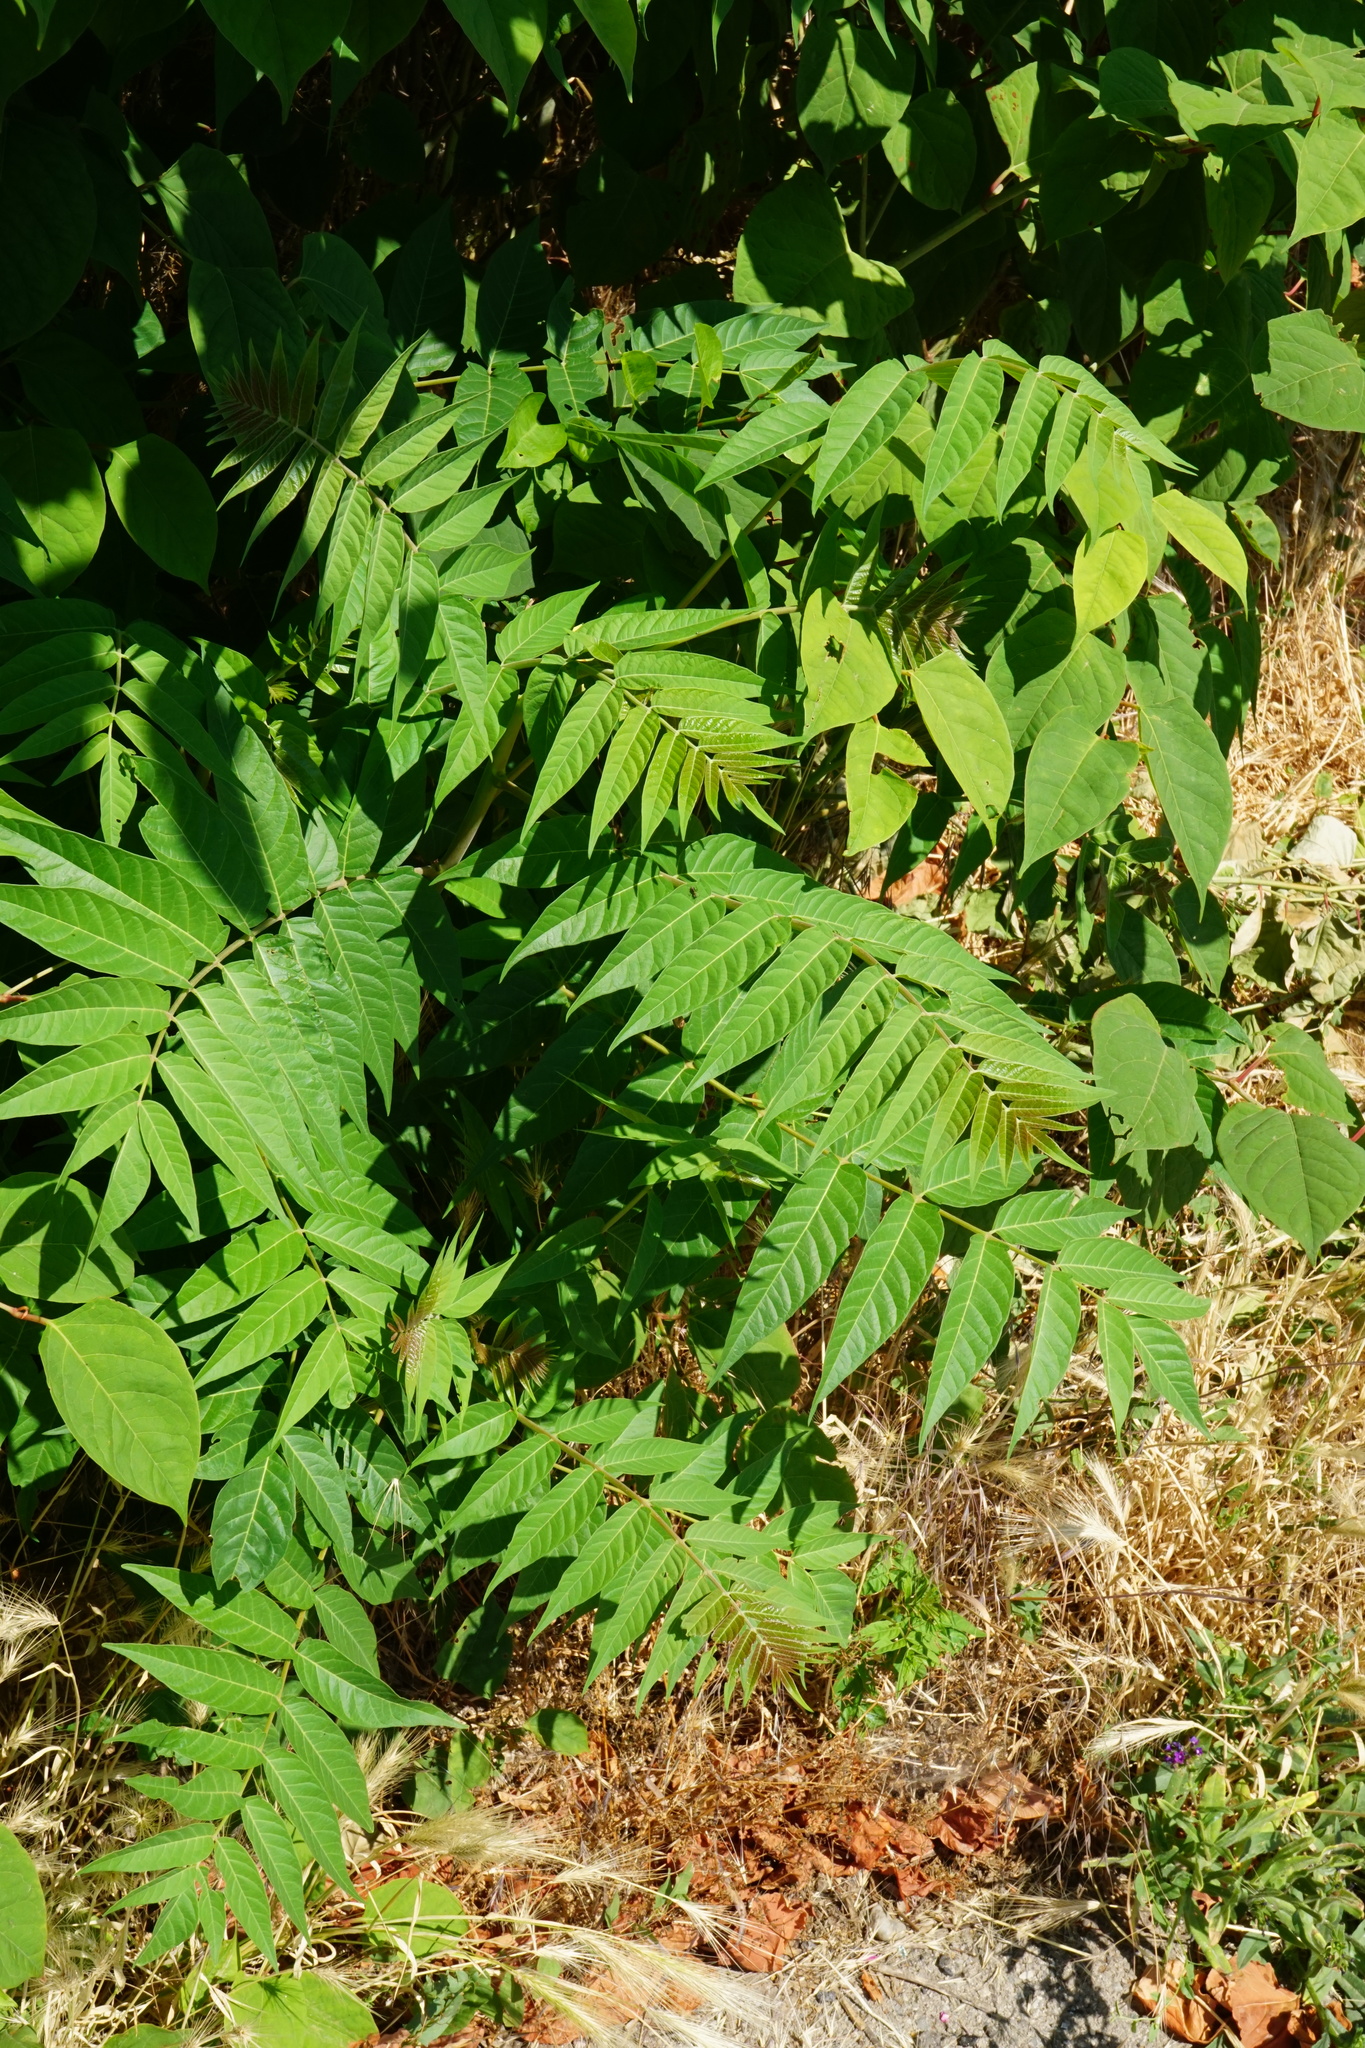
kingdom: Plantae
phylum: Tracheophyta
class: Magnoliopsida
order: Sapindales
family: Simaroubaceae
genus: Ailanthus
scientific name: Ailanthus altissima
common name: Tree-of-heaven
